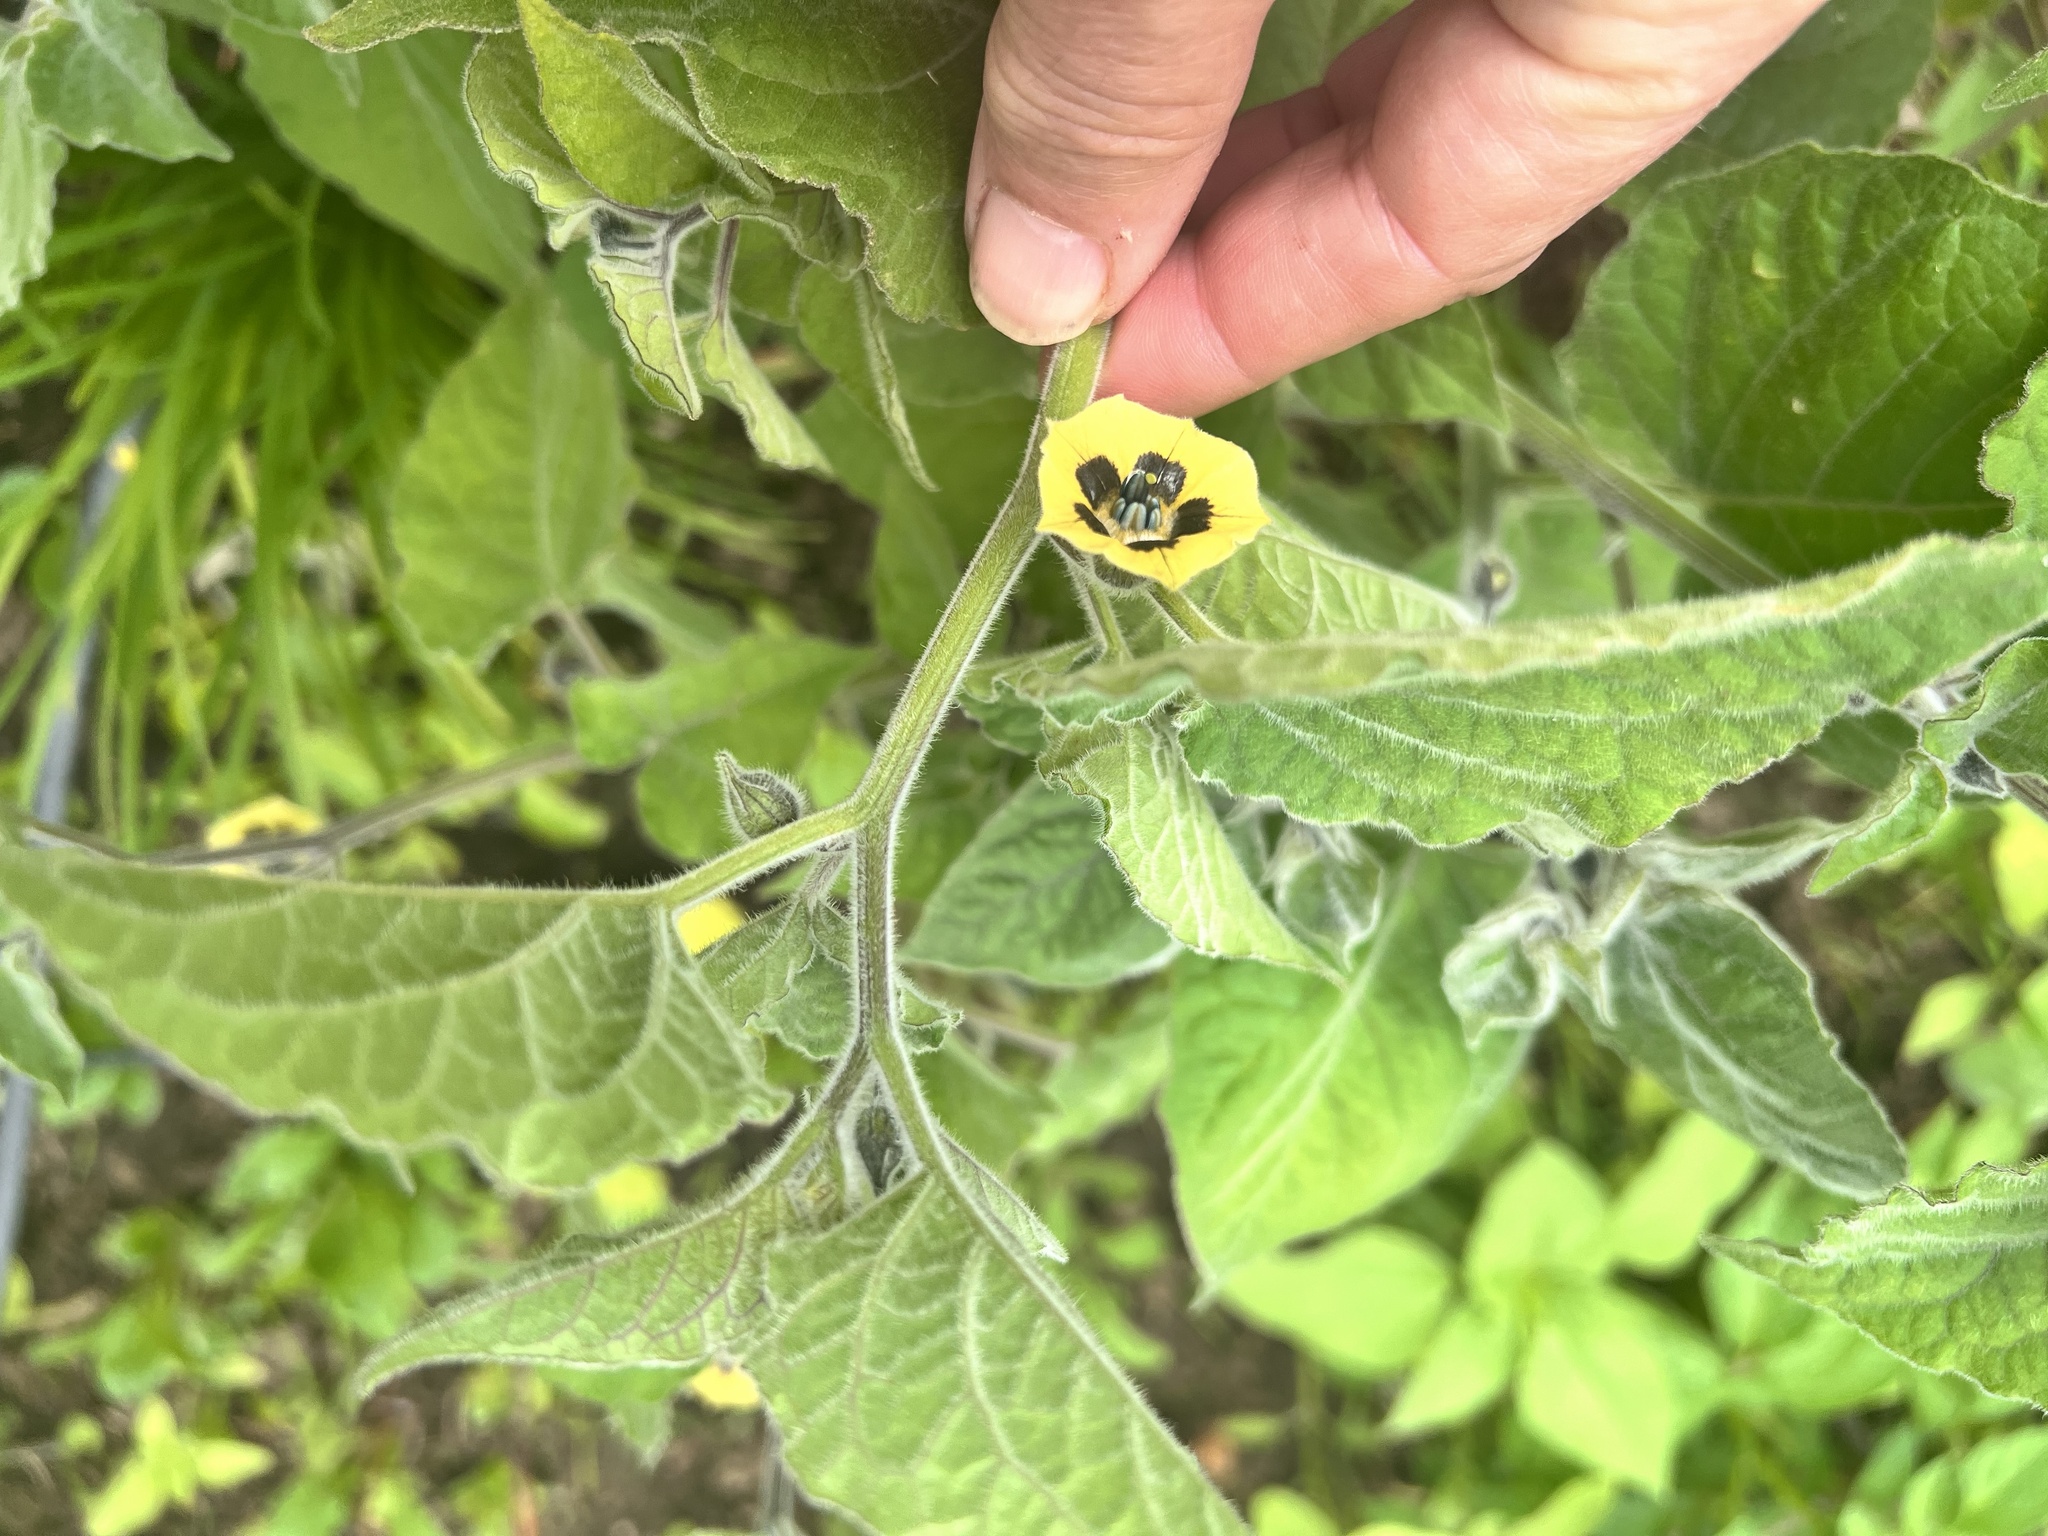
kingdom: Plantae
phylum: Tracheophyta
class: Magnoliopsida
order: Solanales
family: Solanaceae
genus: Physalis
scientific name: Physalis peruviana
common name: Cape-gooseberry
